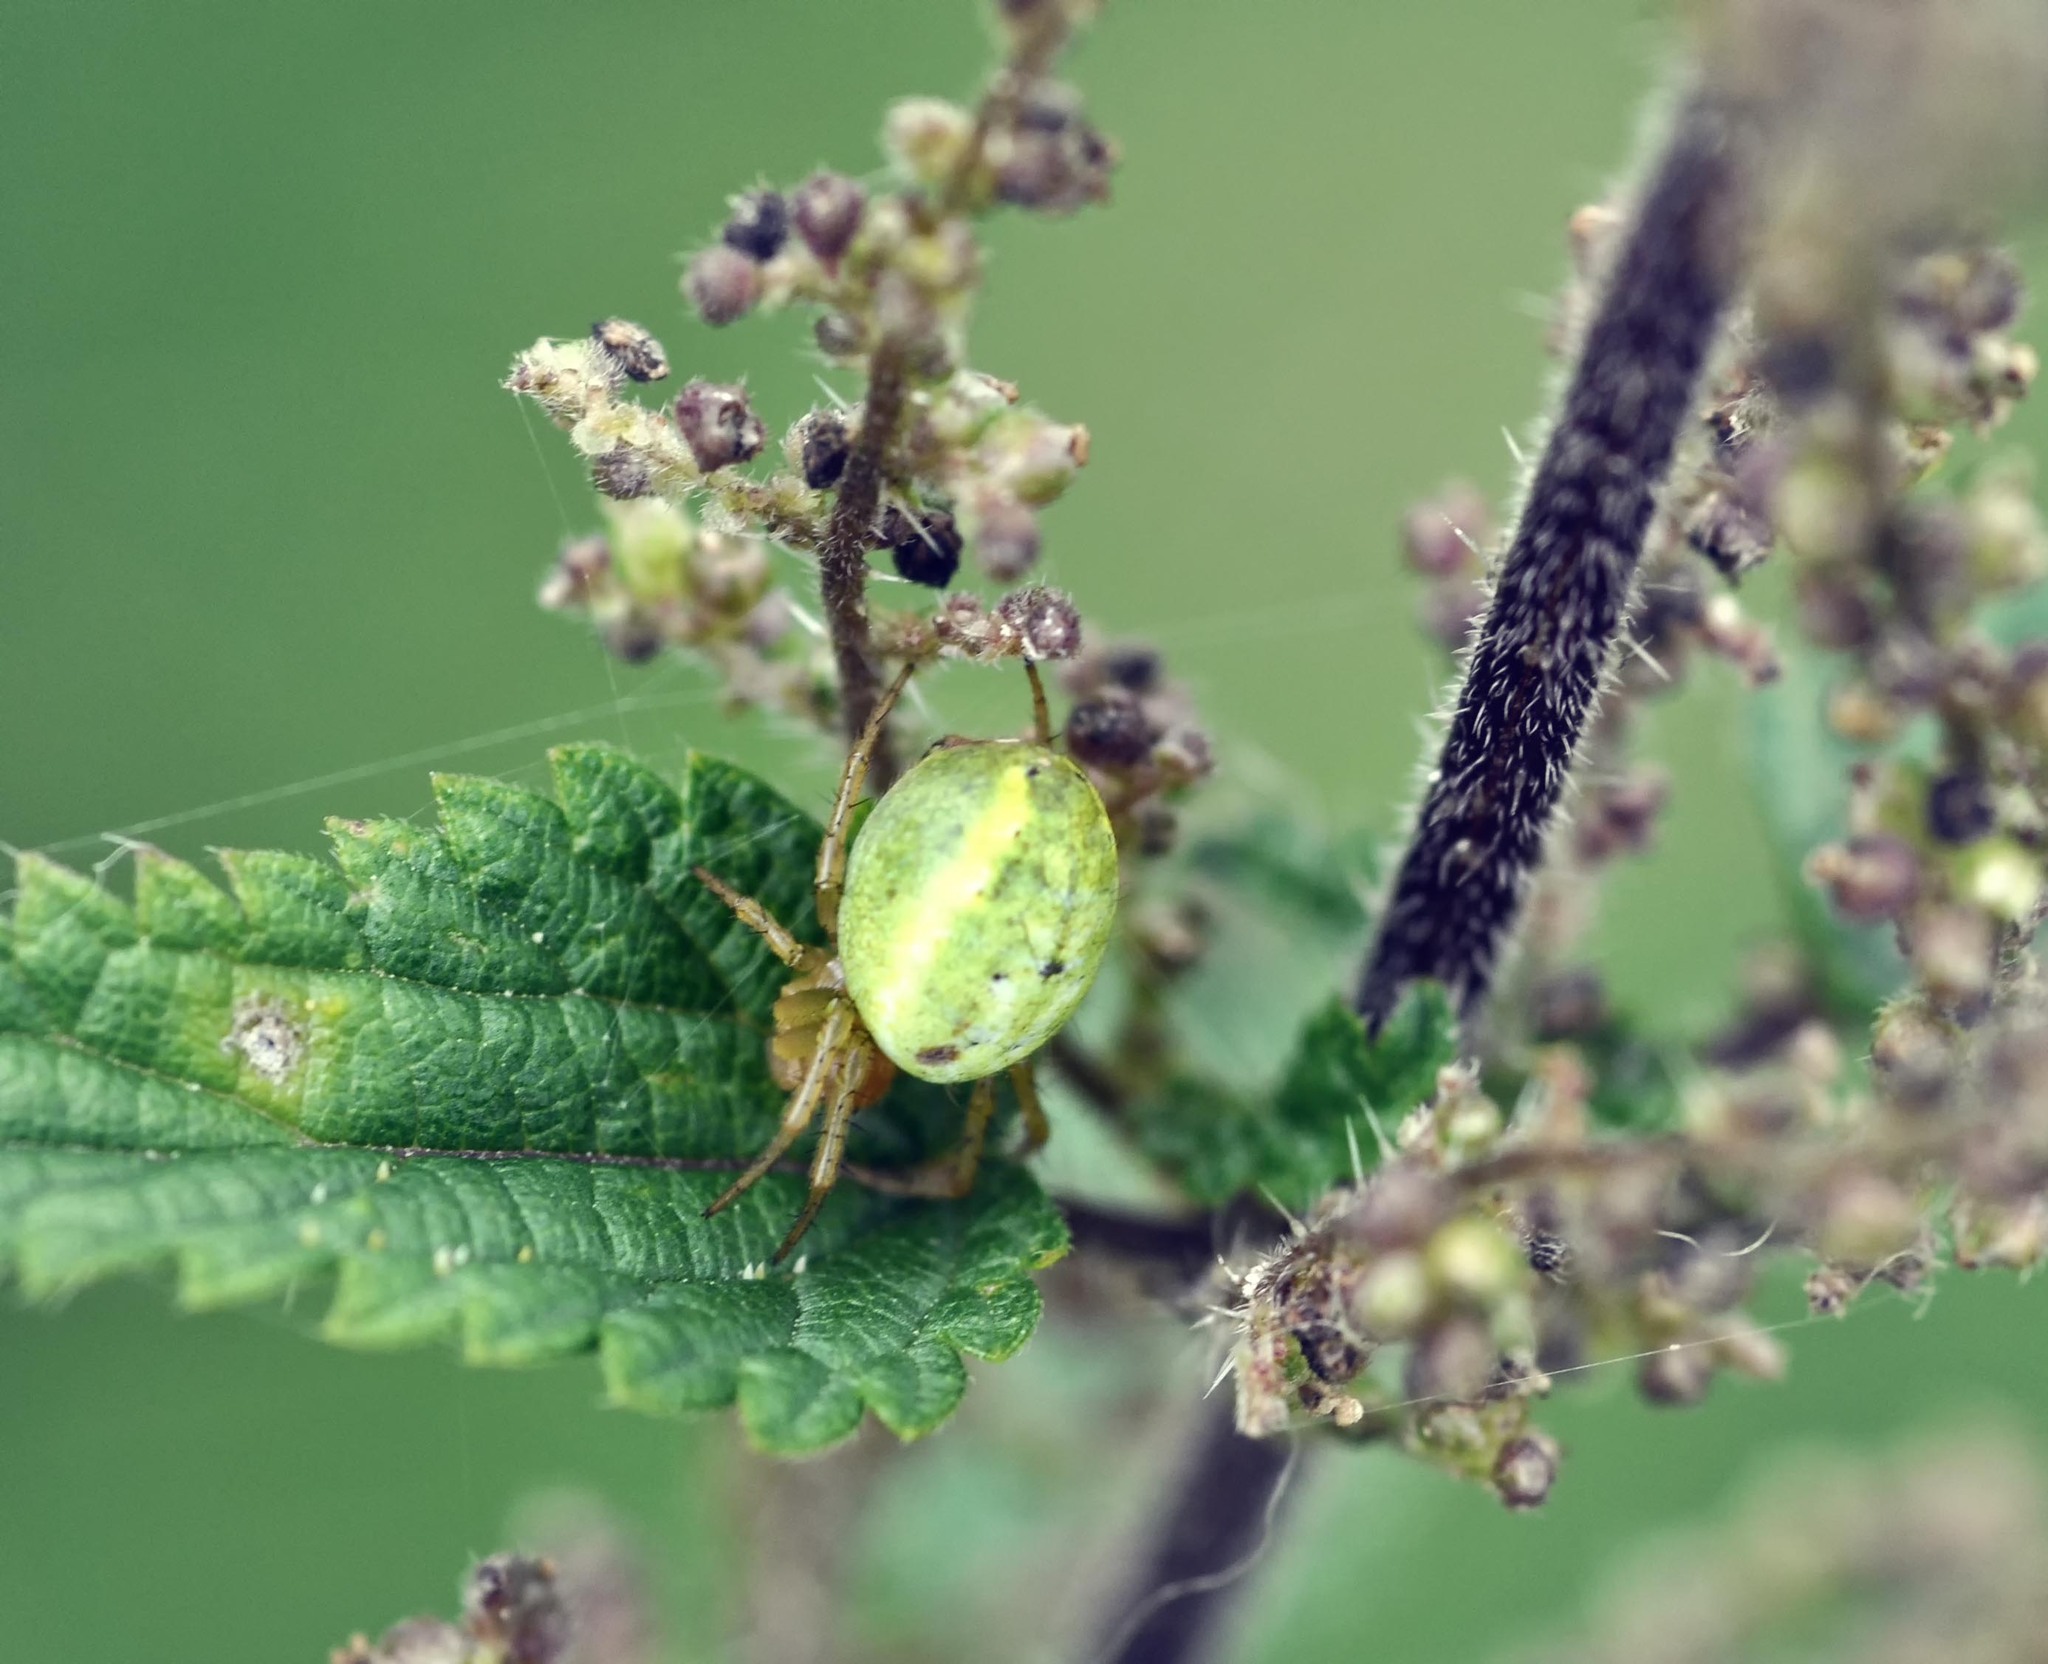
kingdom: Animalia
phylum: Arthropoda
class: Arachnida
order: Araneae
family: Araneidae
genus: Araniella
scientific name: Araniella
